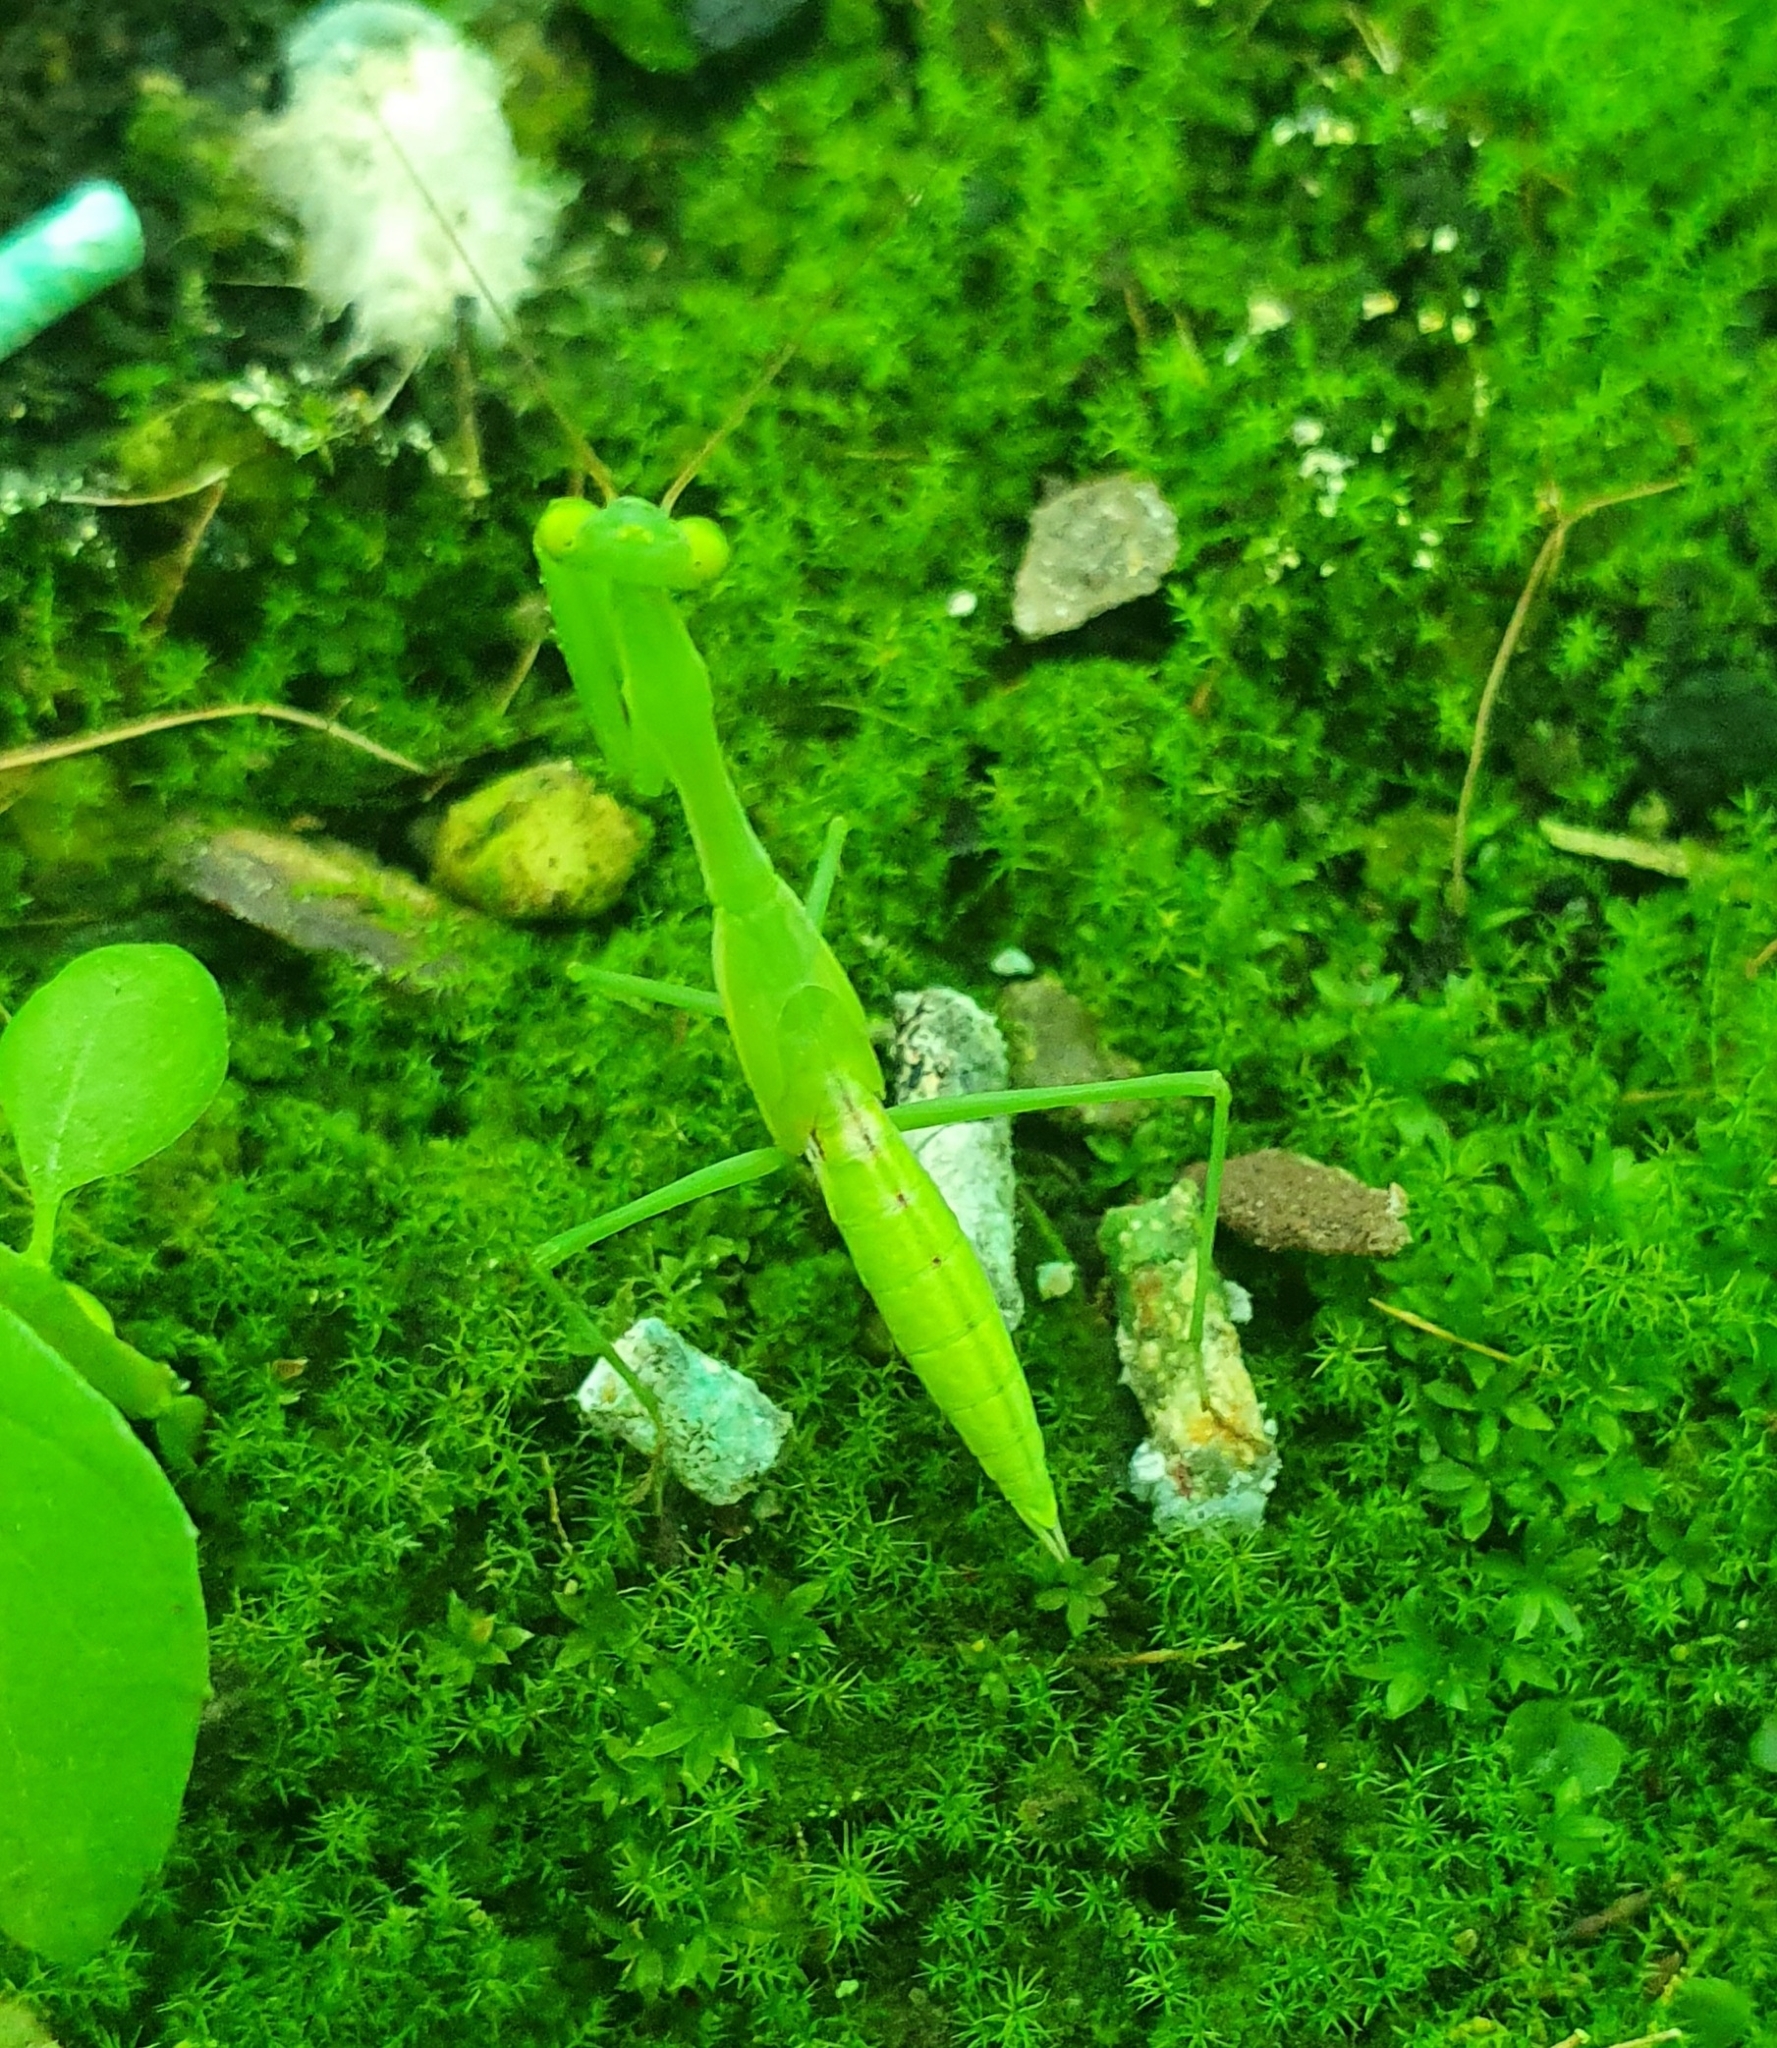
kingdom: Animalia
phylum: Arthropoda
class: Insecta
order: Mantodea
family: Miomantidae
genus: Miomantis
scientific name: Miomantis caffra
